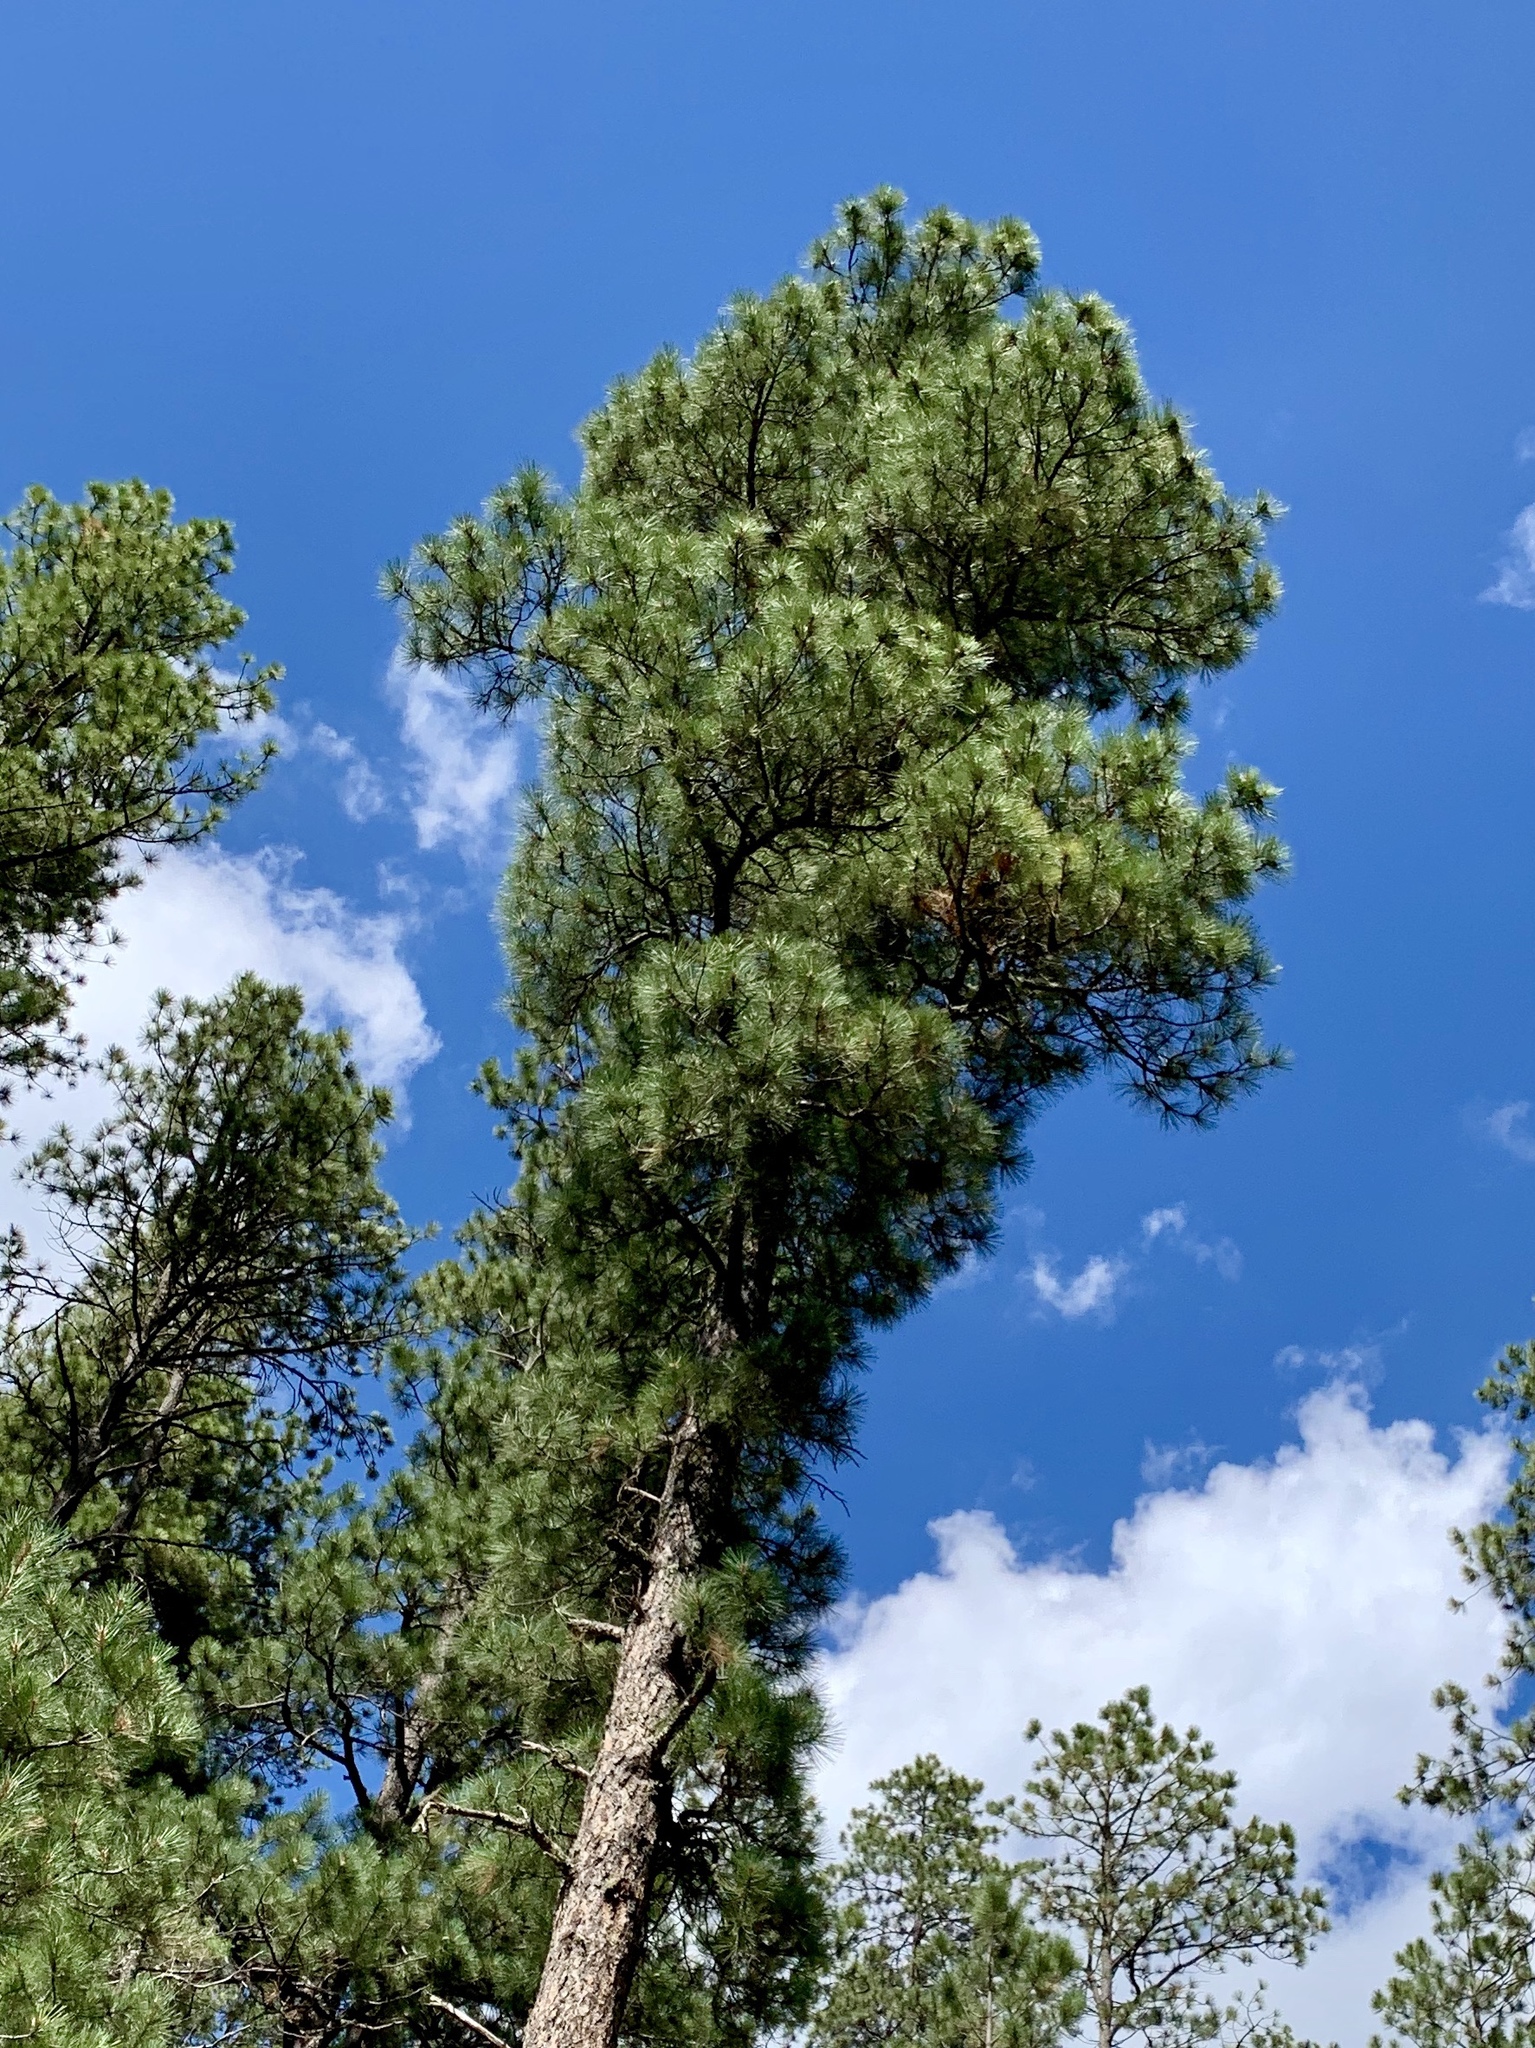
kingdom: Plantae
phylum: Tracheophyta
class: Pinopsida
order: Pinales
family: Pinaceae
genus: Pinus
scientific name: Pinus ponderosa
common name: Western yellow-pine
